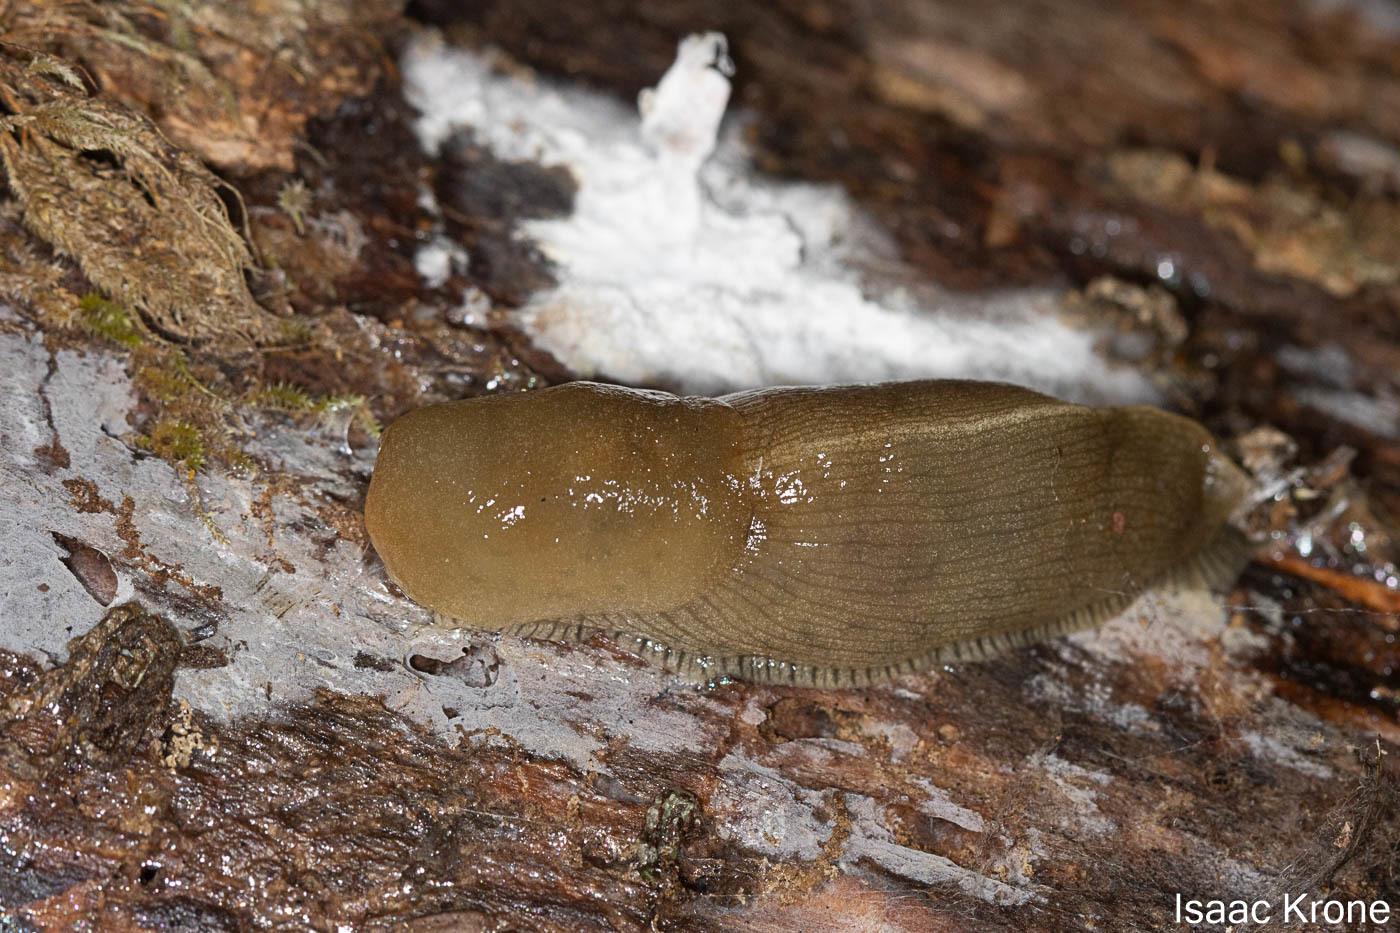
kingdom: Animalia
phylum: Mollusca
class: Gastropoda
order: Stylommatophora
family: Ariolimacidae
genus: Ariolimax
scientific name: Ariolimax buttoni
